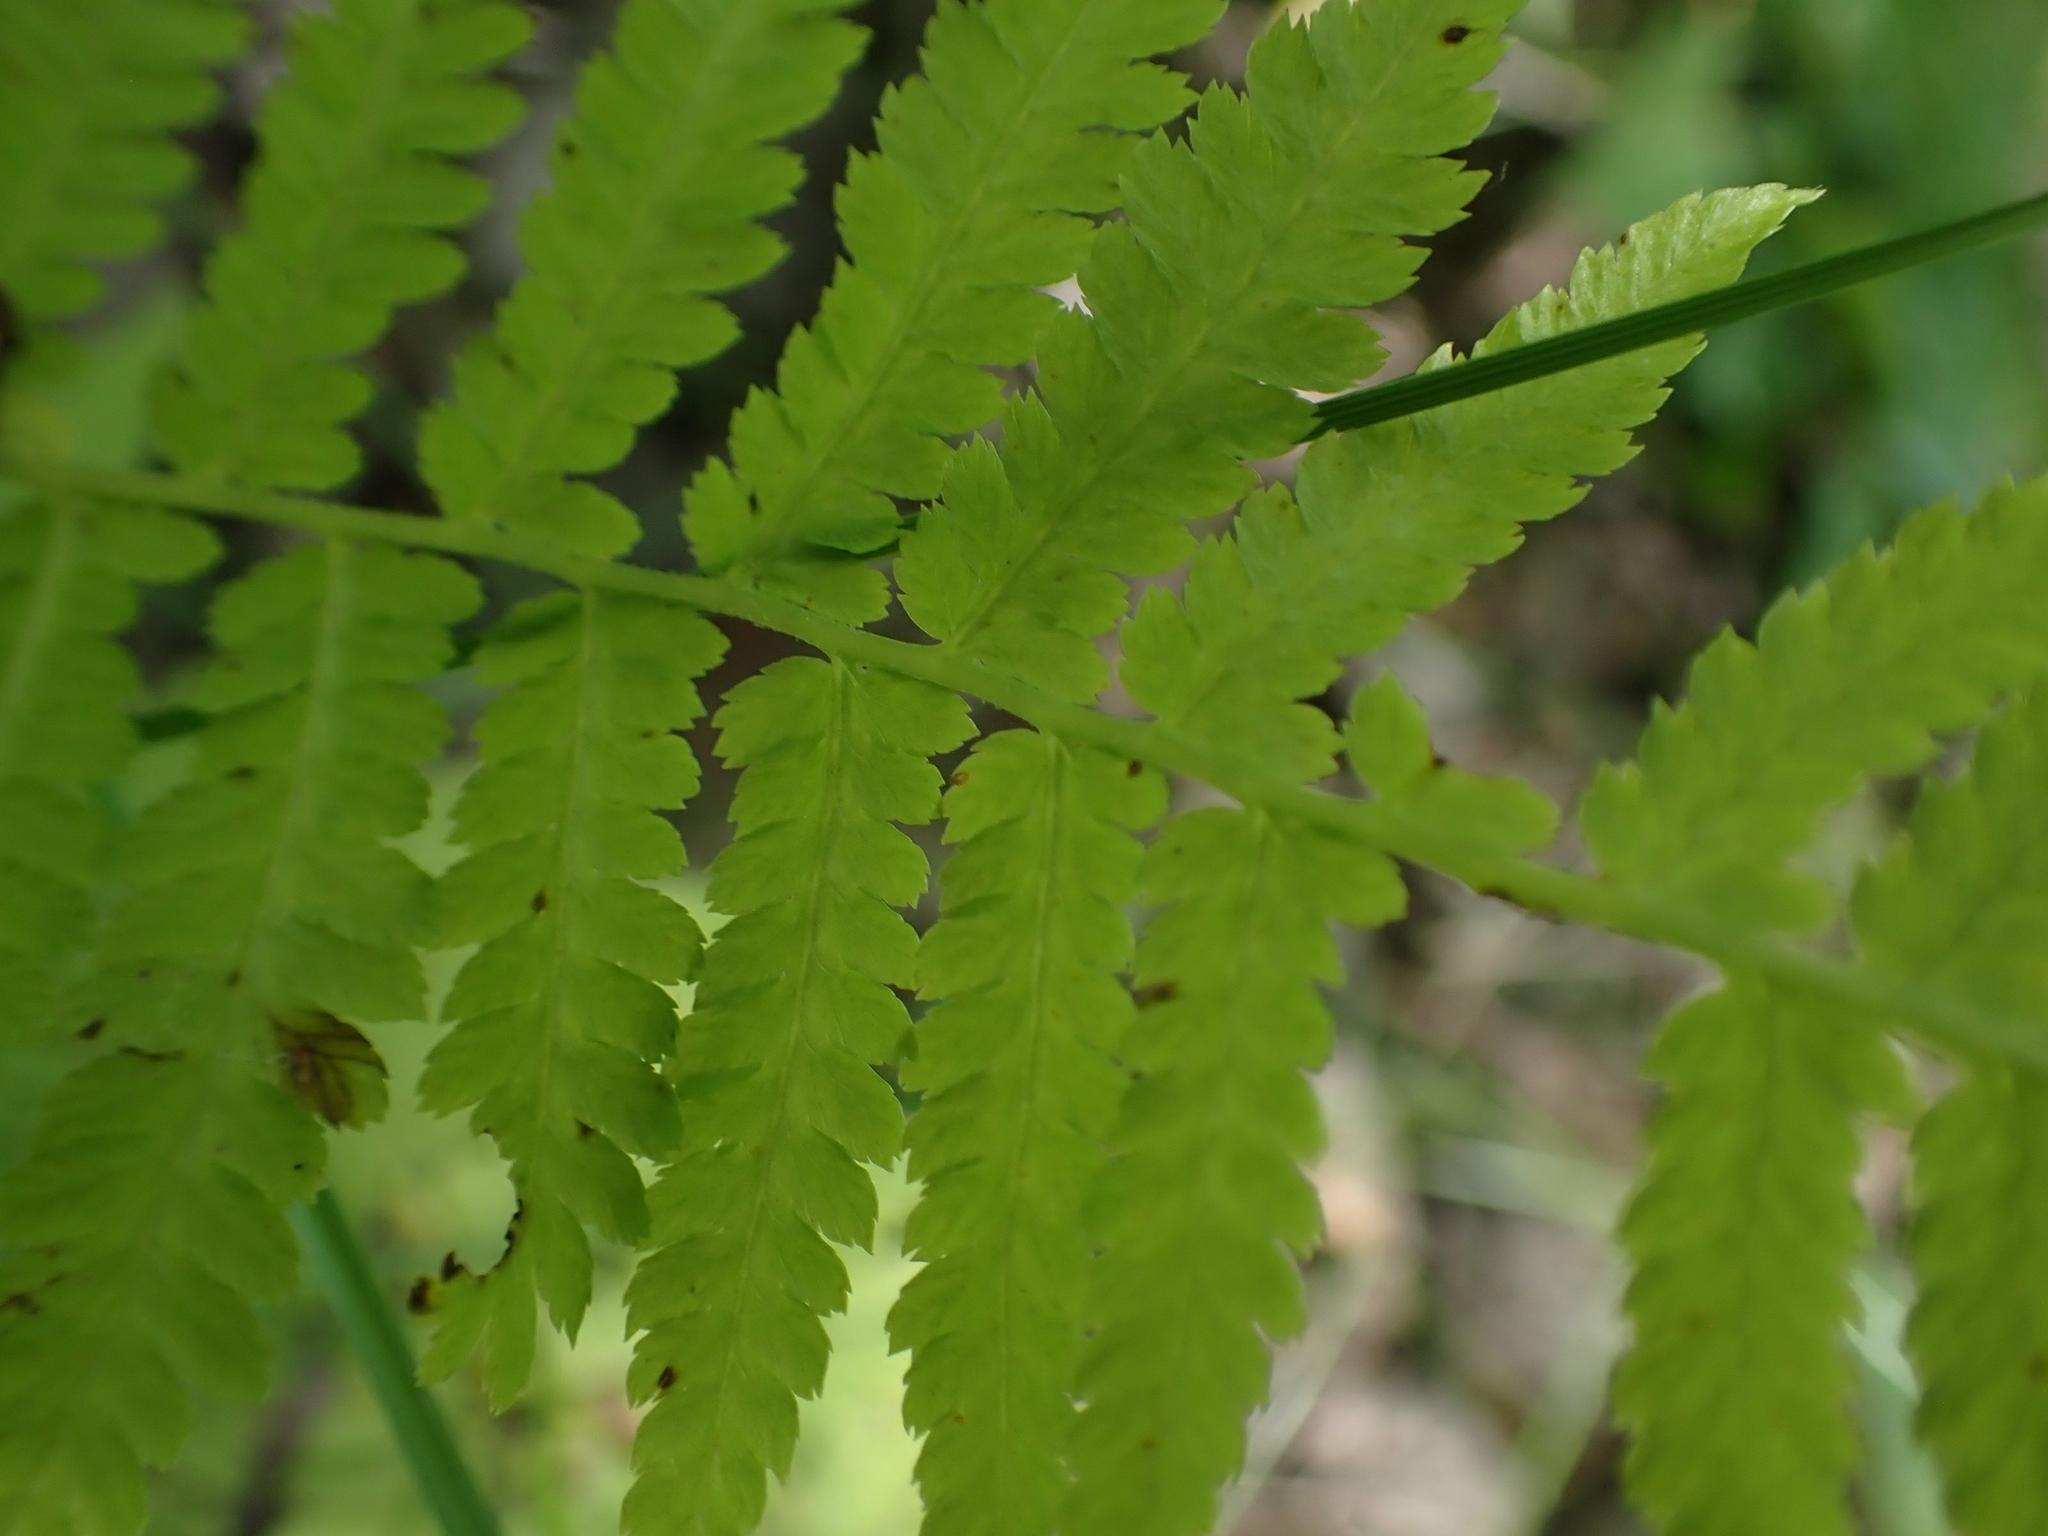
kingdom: Plantae
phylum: Tracheophyta
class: Polypodiopsida
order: Polypodiales
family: Athyriaceae
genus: Athyrium
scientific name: Athyrium angustum
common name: Northern lady fern
